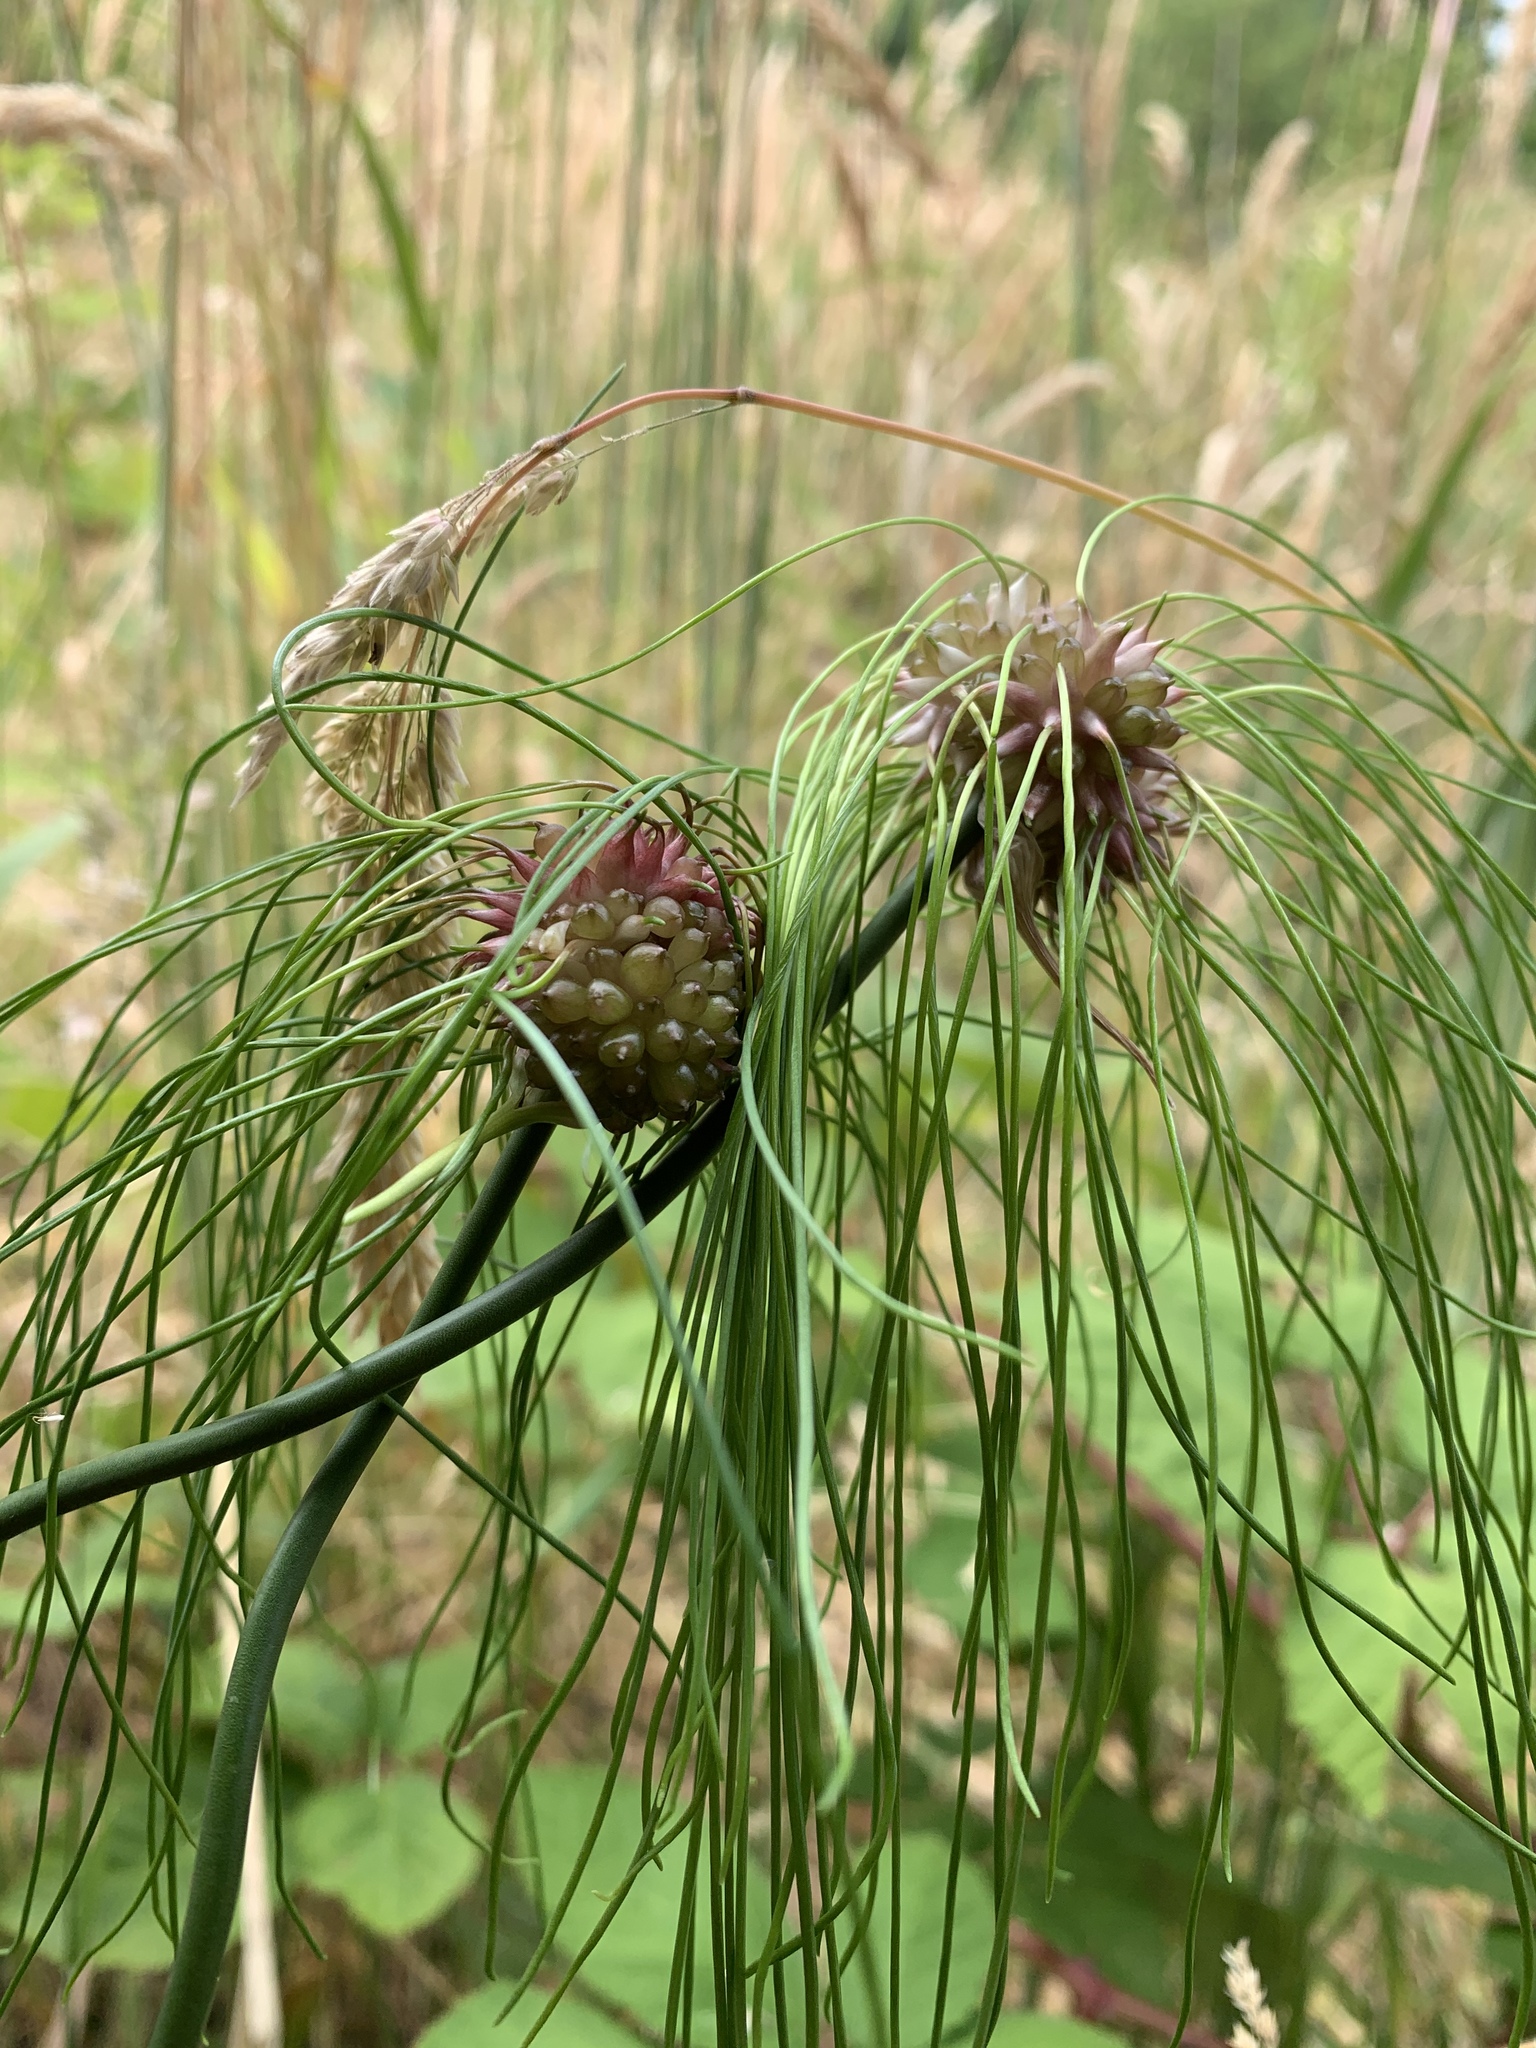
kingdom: Plantae
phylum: Tracheophyta
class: Liliopsida
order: Asparagales
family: Amaryllidaceae
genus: Allium
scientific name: Allium vineale
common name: Crow garlic
